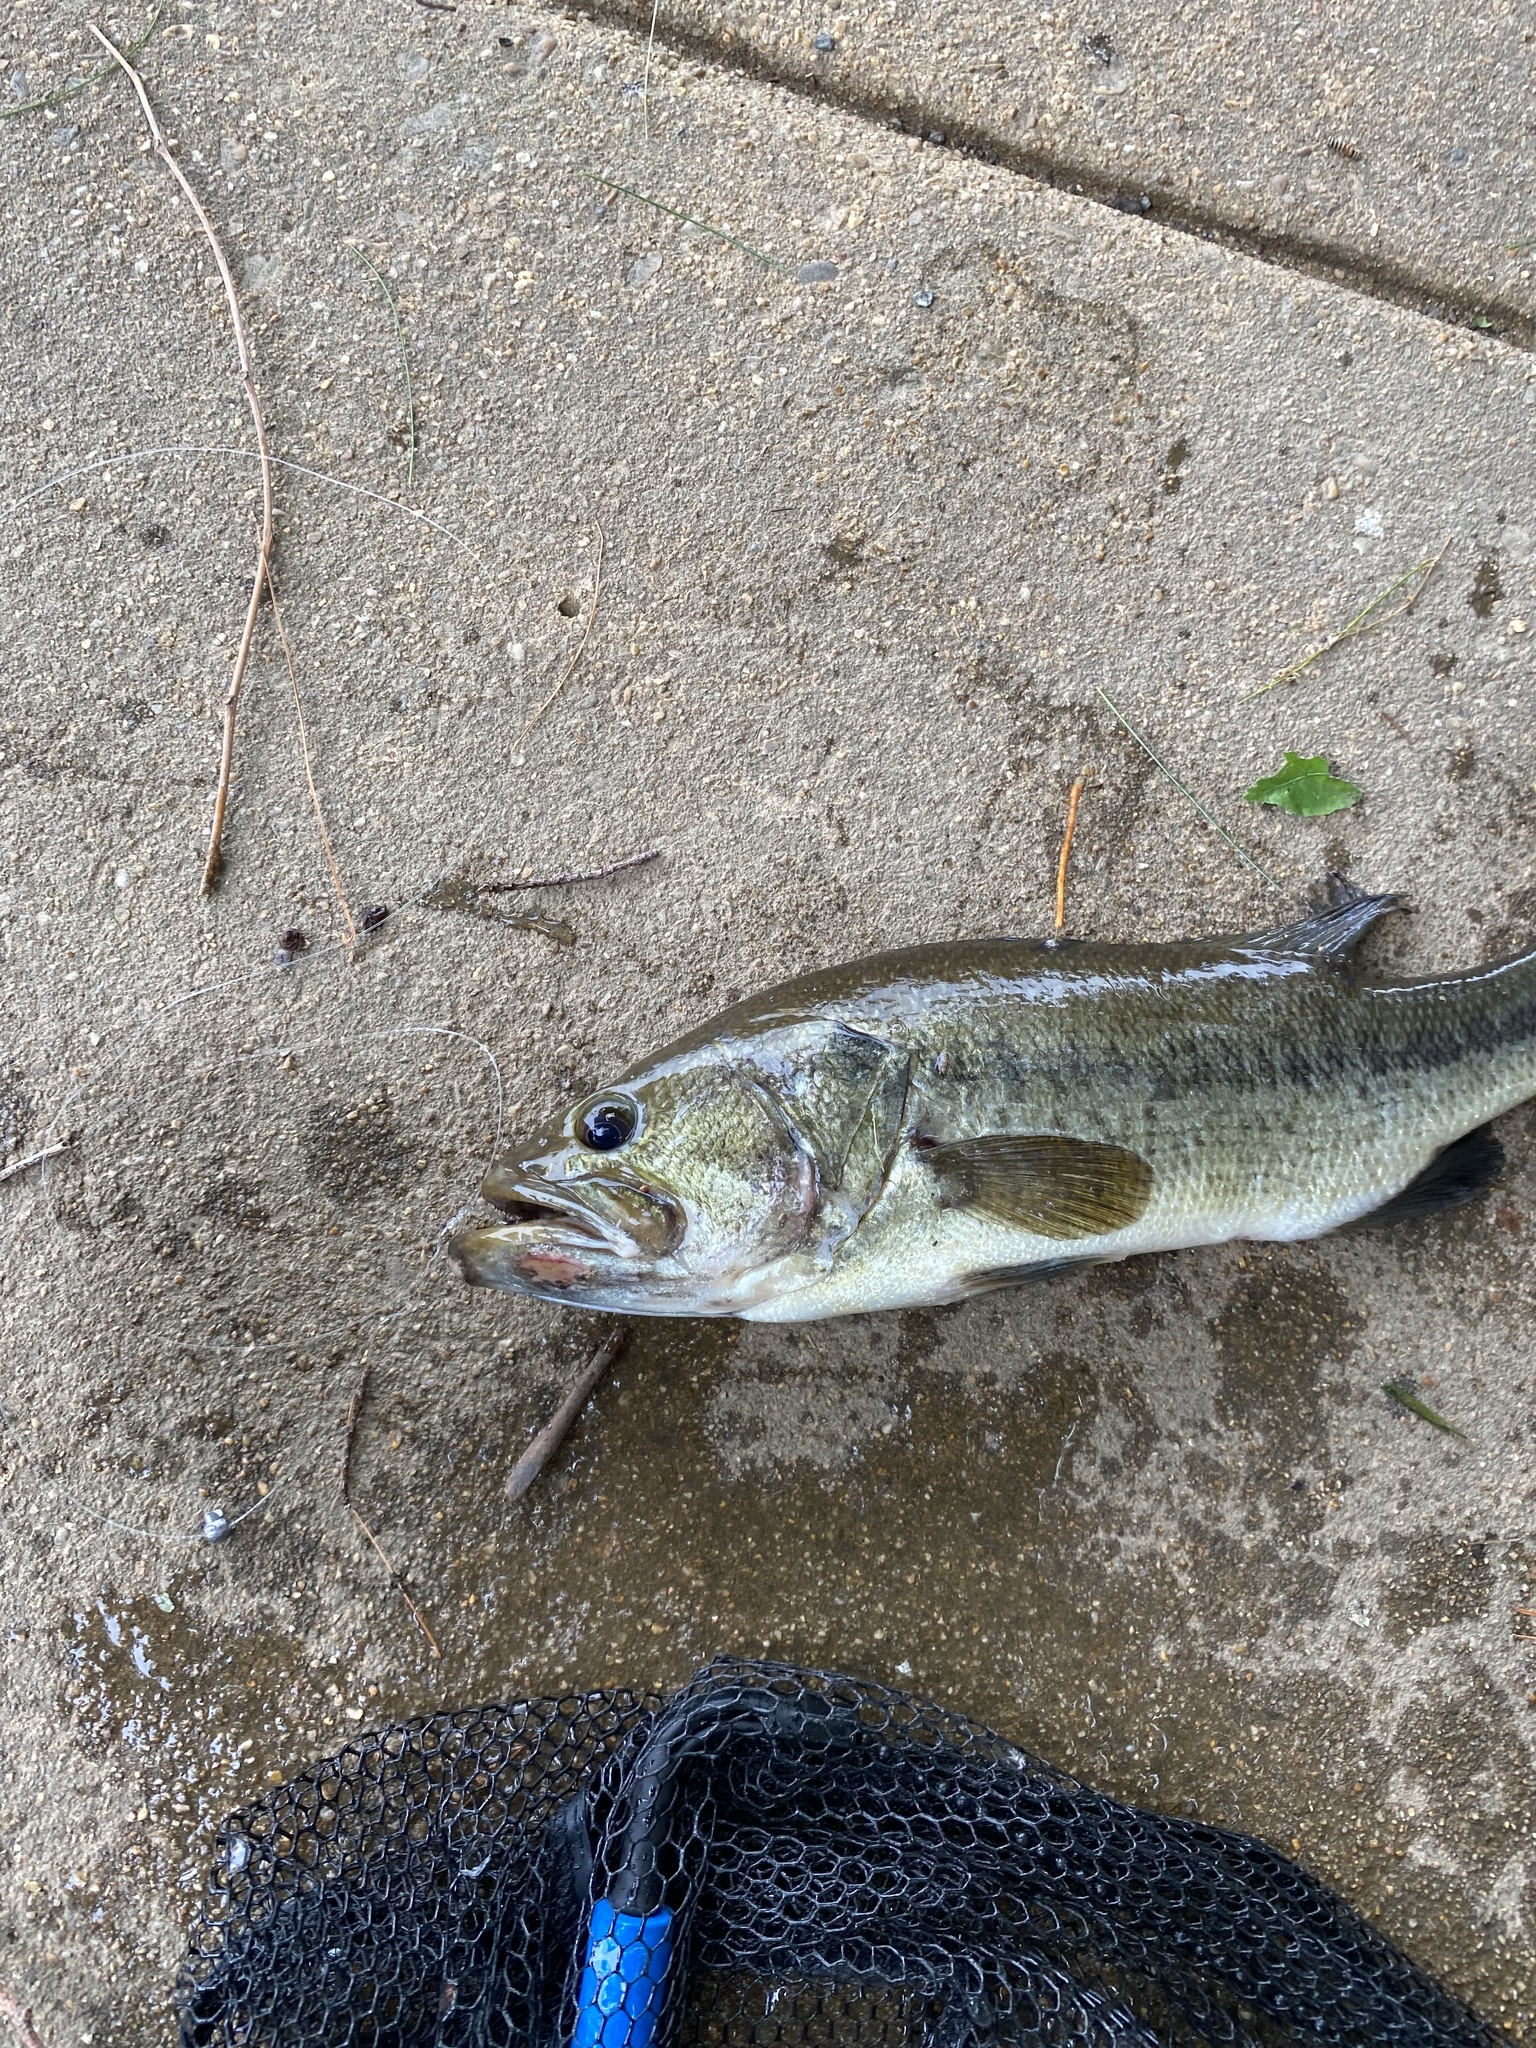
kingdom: Animalia
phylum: Chordata
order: Perciformes
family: Centrarchidae
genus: Micropterus
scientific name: Micropterus
